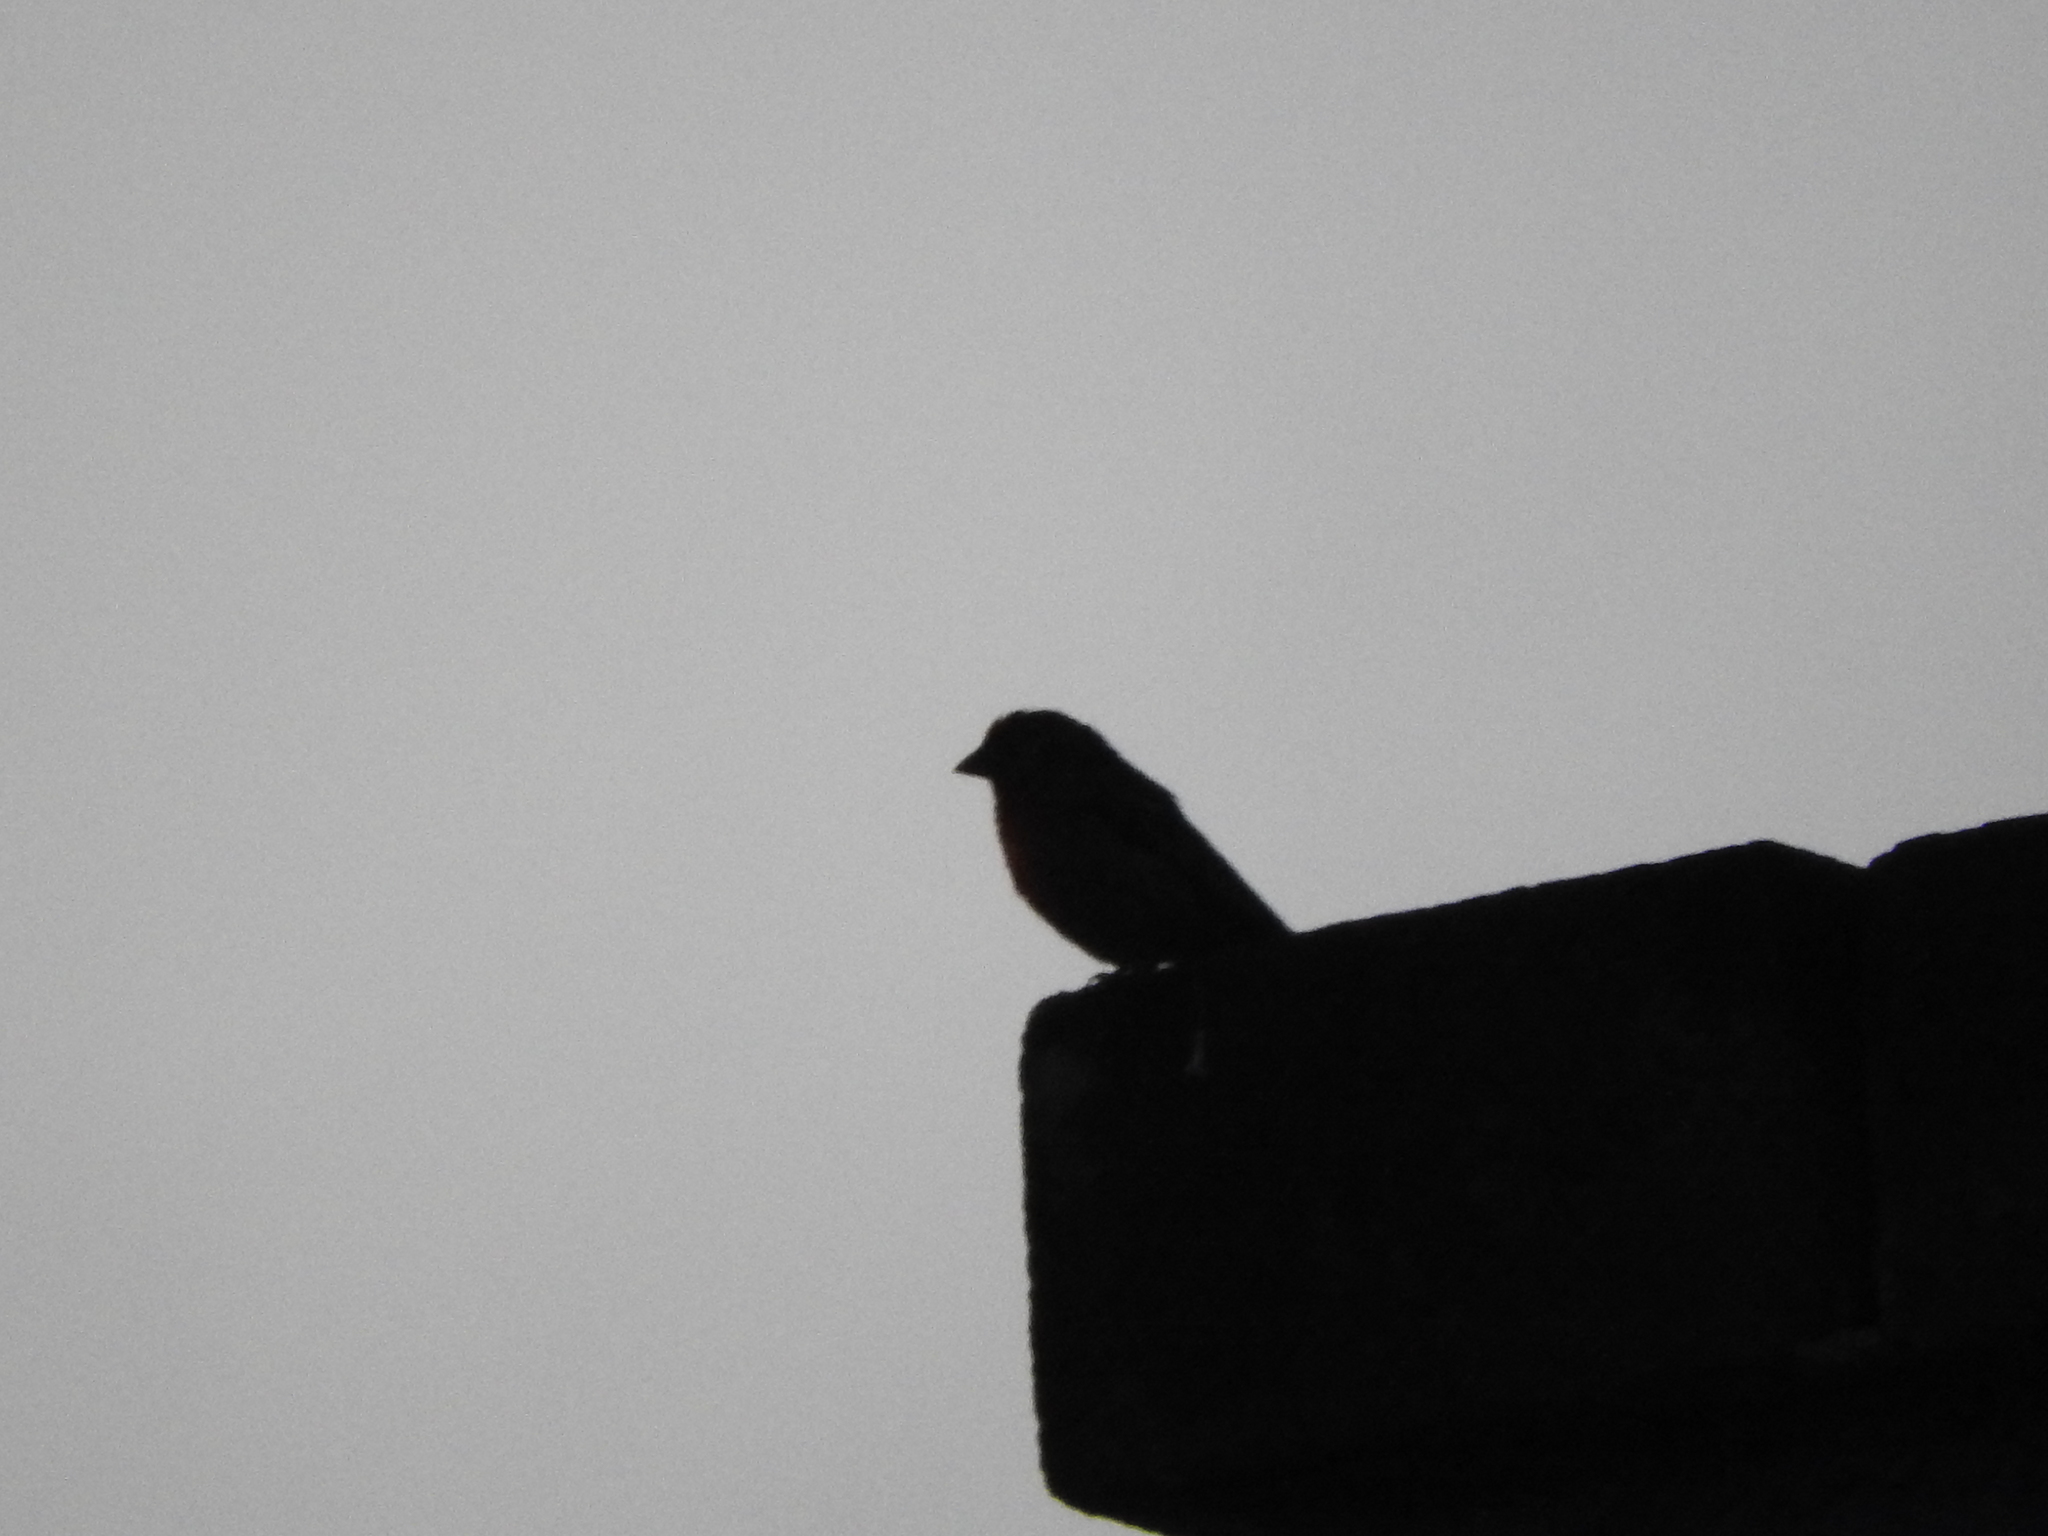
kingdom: Animalia
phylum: Chordata
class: Aves
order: Passeriformes
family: Fringillidae
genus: Haemorhous
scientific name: Haemorhous mexicanus
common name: House finch
